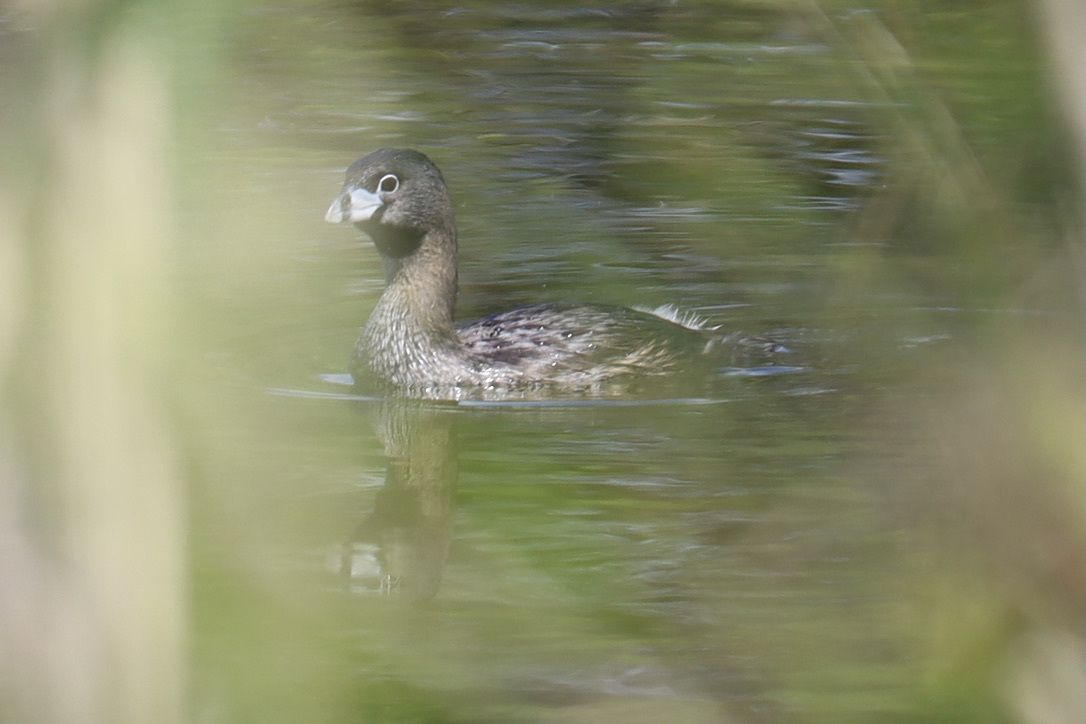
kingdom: Animalia
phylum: Chordata
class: Aves
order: Podicipediformes
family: Podicipedidae
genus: Podilymbus
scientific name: Podilymbus podiceps
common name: Pied-billed grebe
